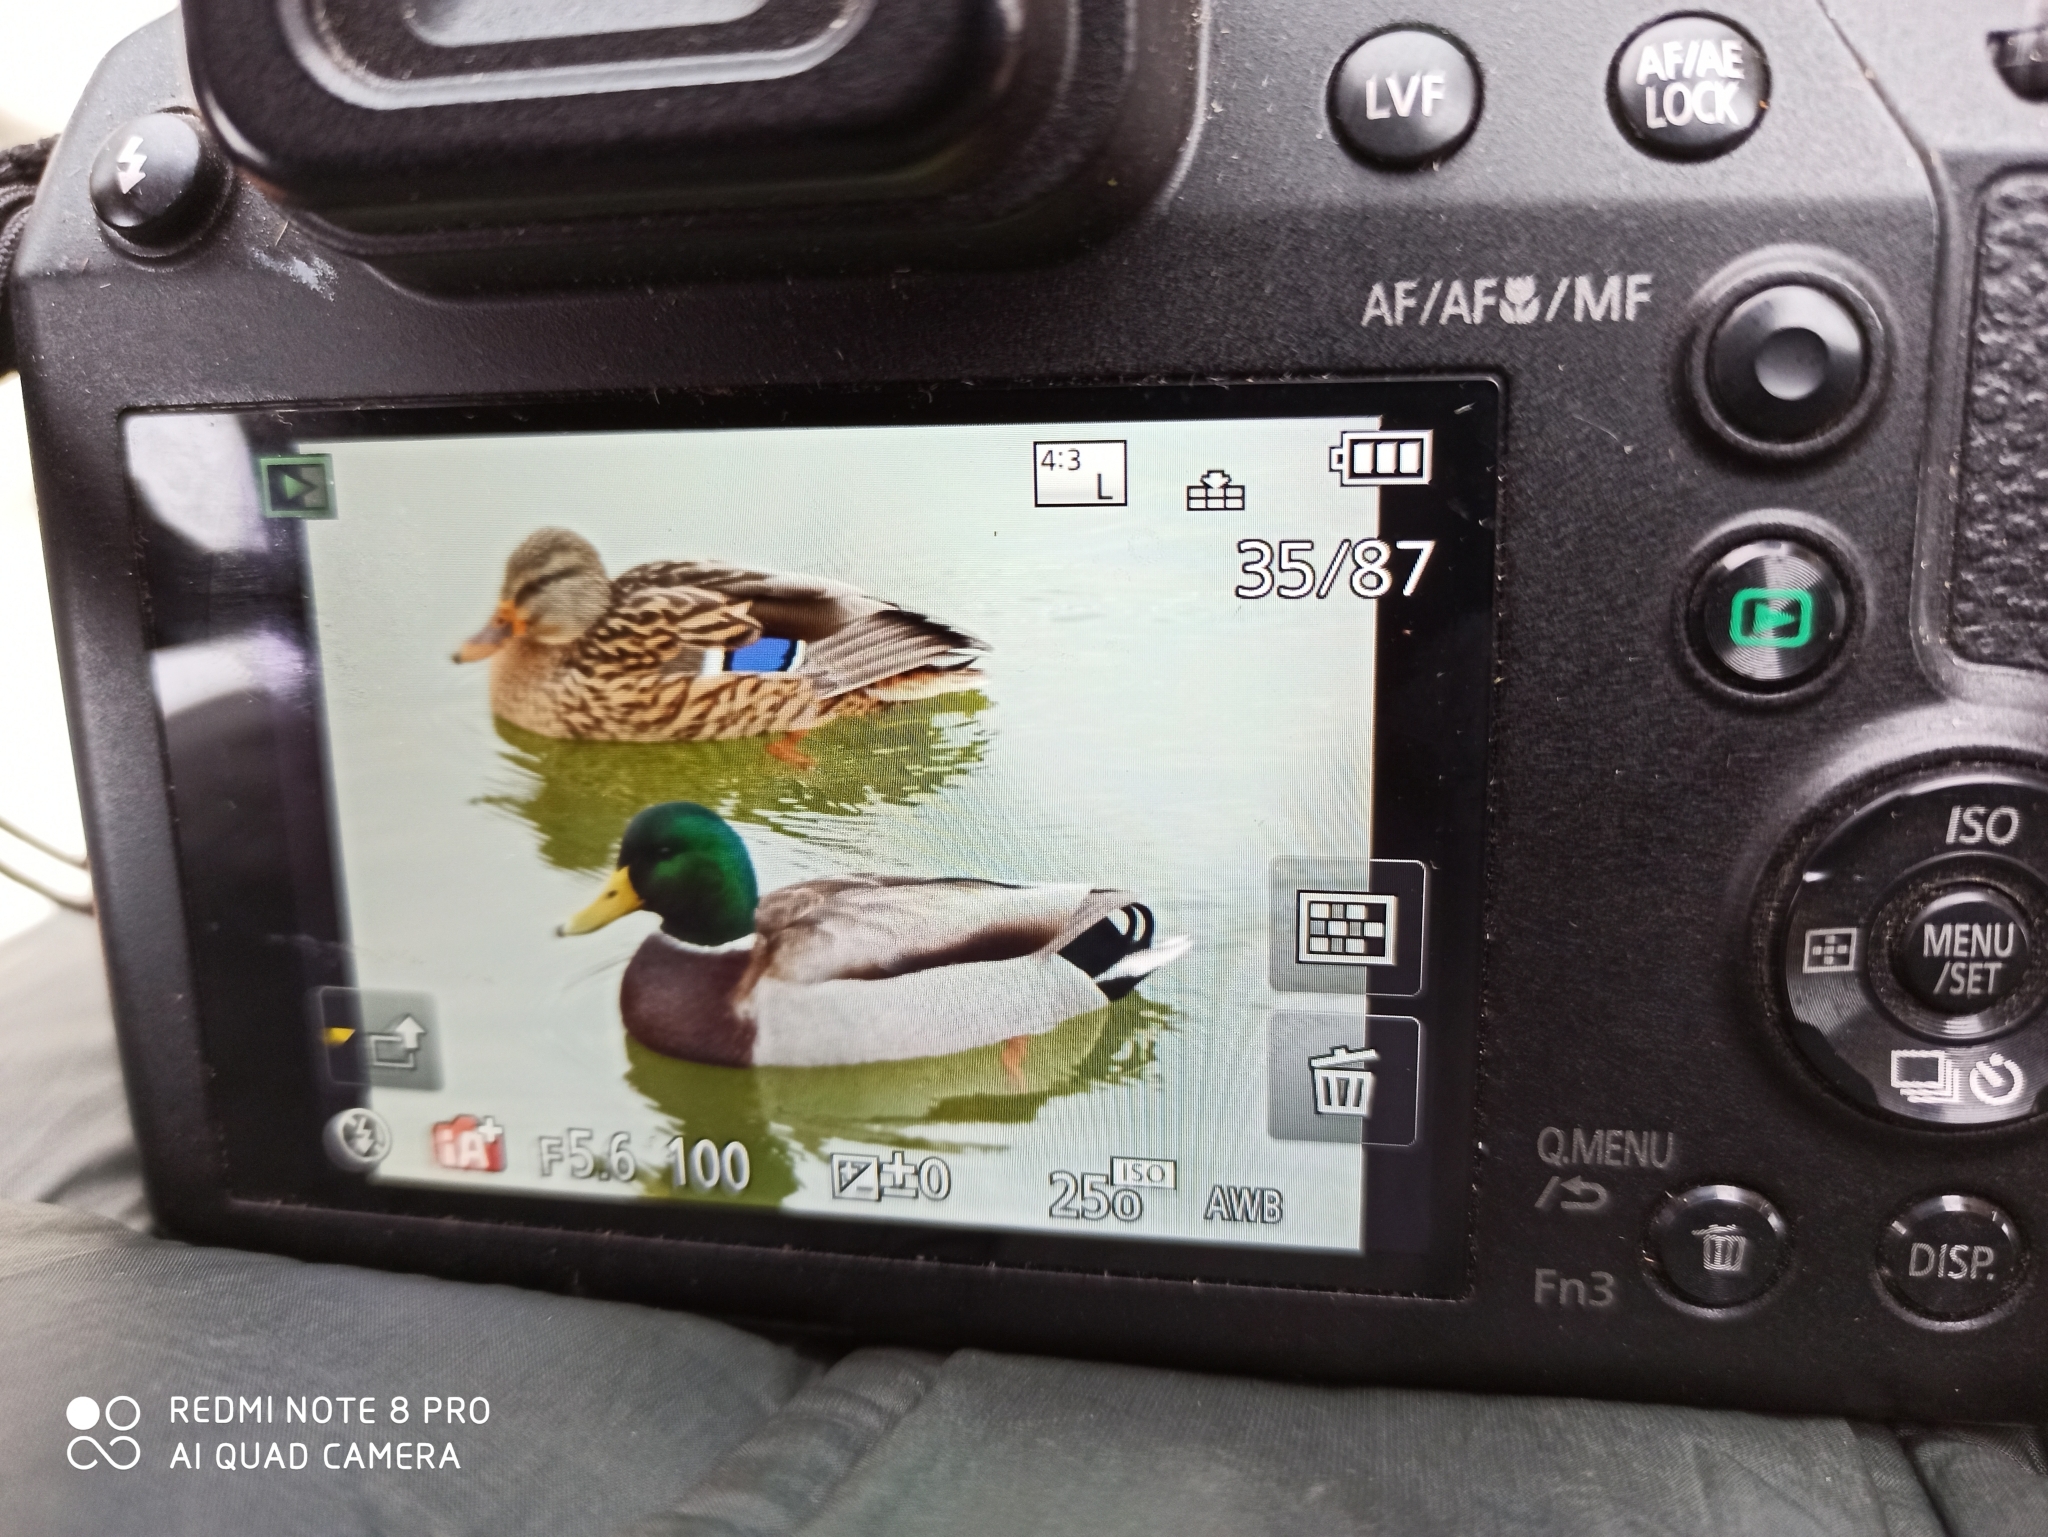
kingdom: Animalia
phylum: Chordata
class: Aves
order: Anseriformes
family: Anatidae
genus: Anas
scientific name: Anas platyrhynchos
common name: Mallard
